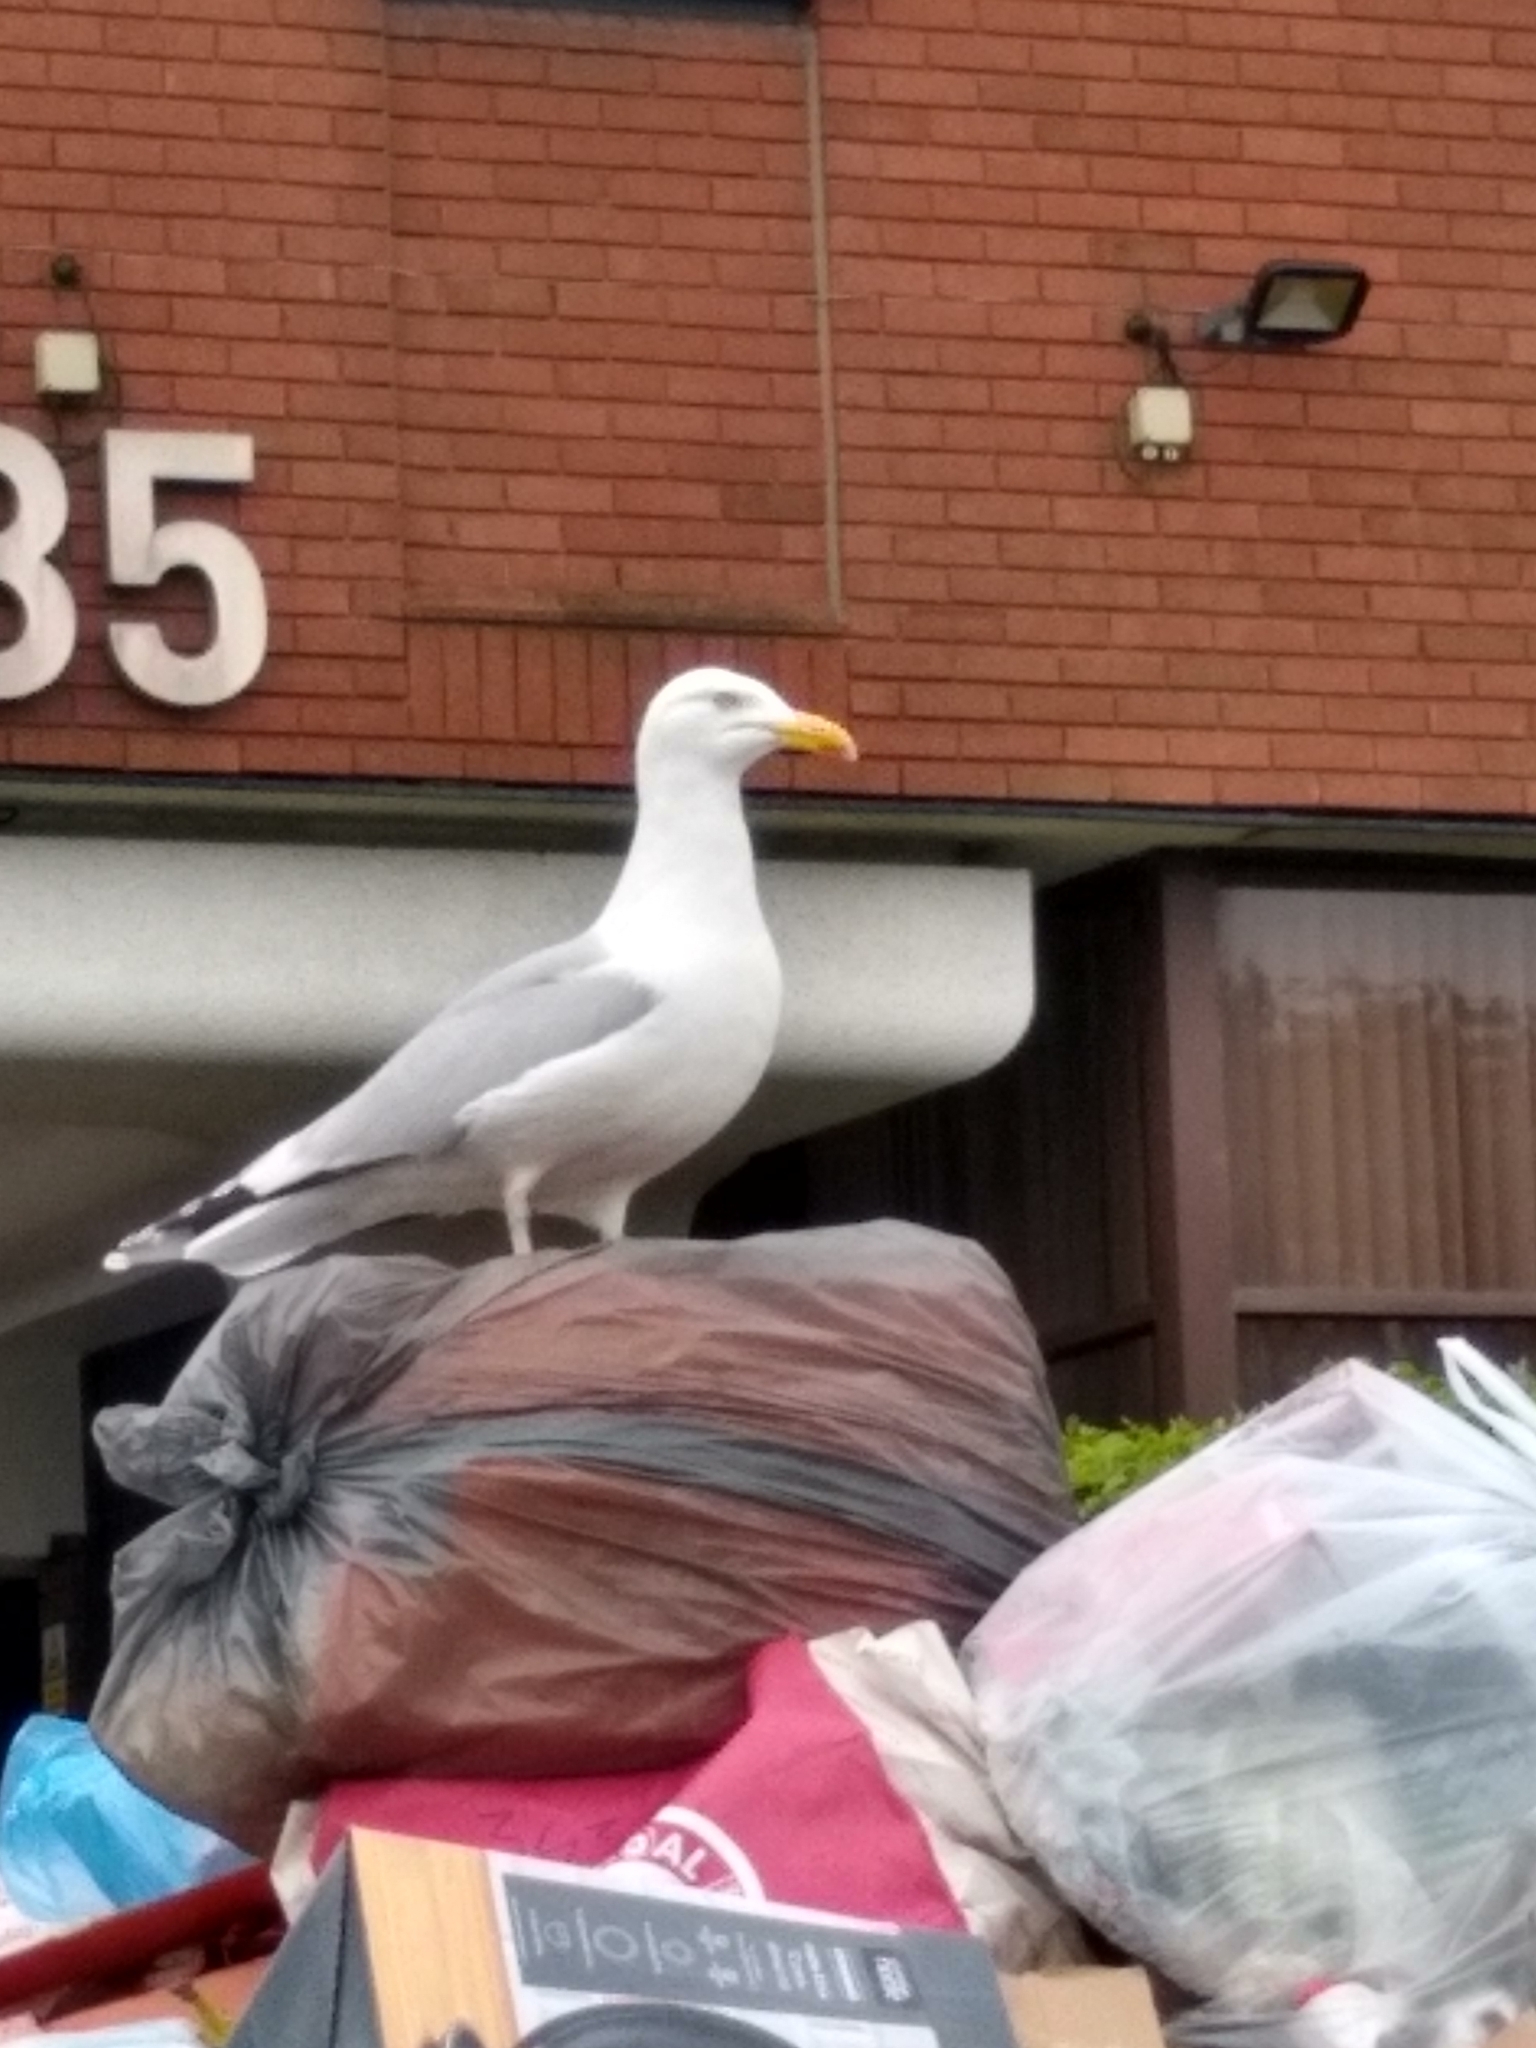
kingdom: Animalia
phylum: Chordata
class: Aves
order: Charadriiformes
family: Laridae
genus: Larus
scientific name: Larus argentatus
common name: Herring gull
